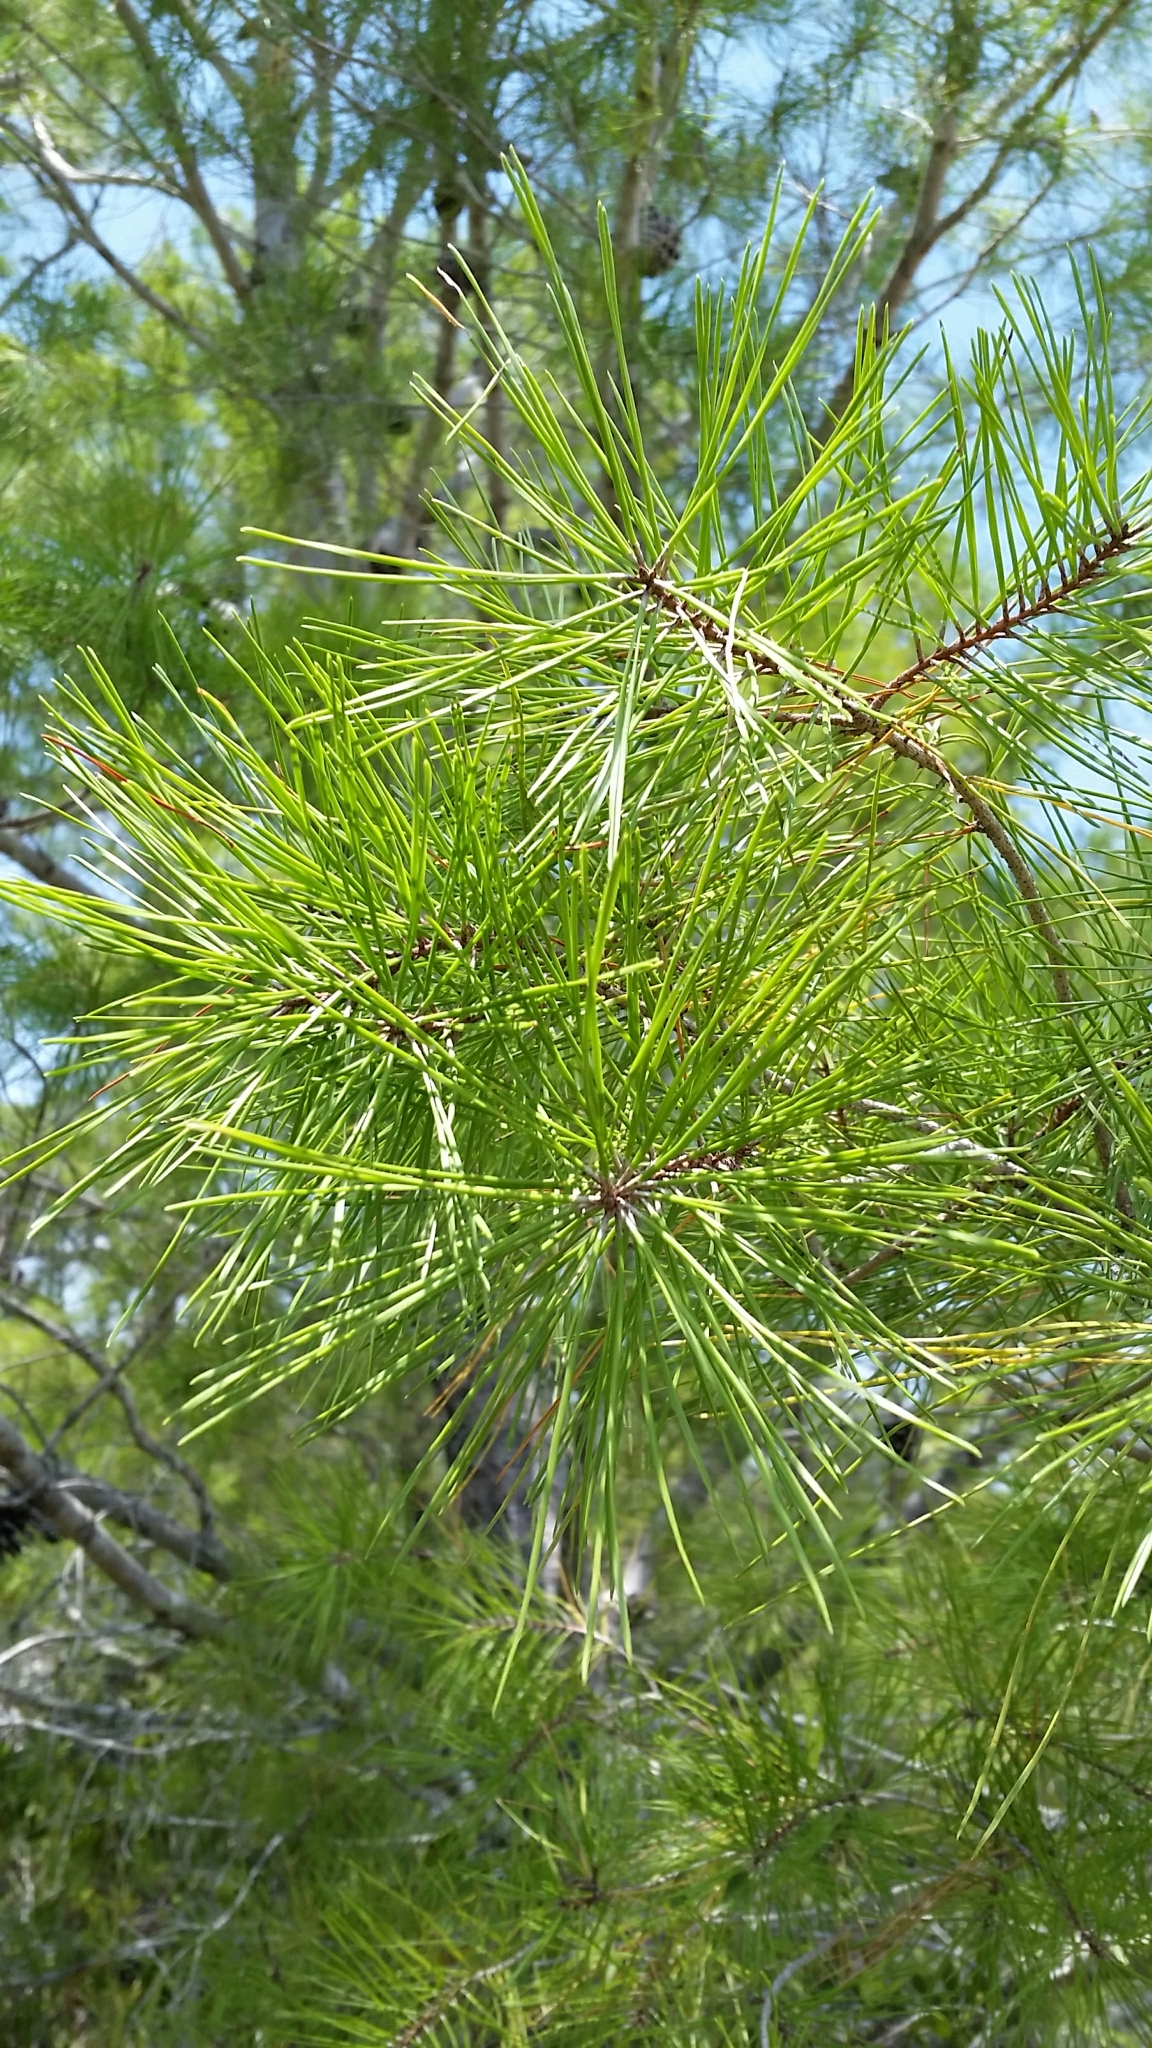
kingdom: Plantae
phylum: Tracheophyta
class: Pinopsida
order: Pinales
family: Pinaceae
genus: Pinus
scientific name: Pinus clausa
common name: Sand pine
